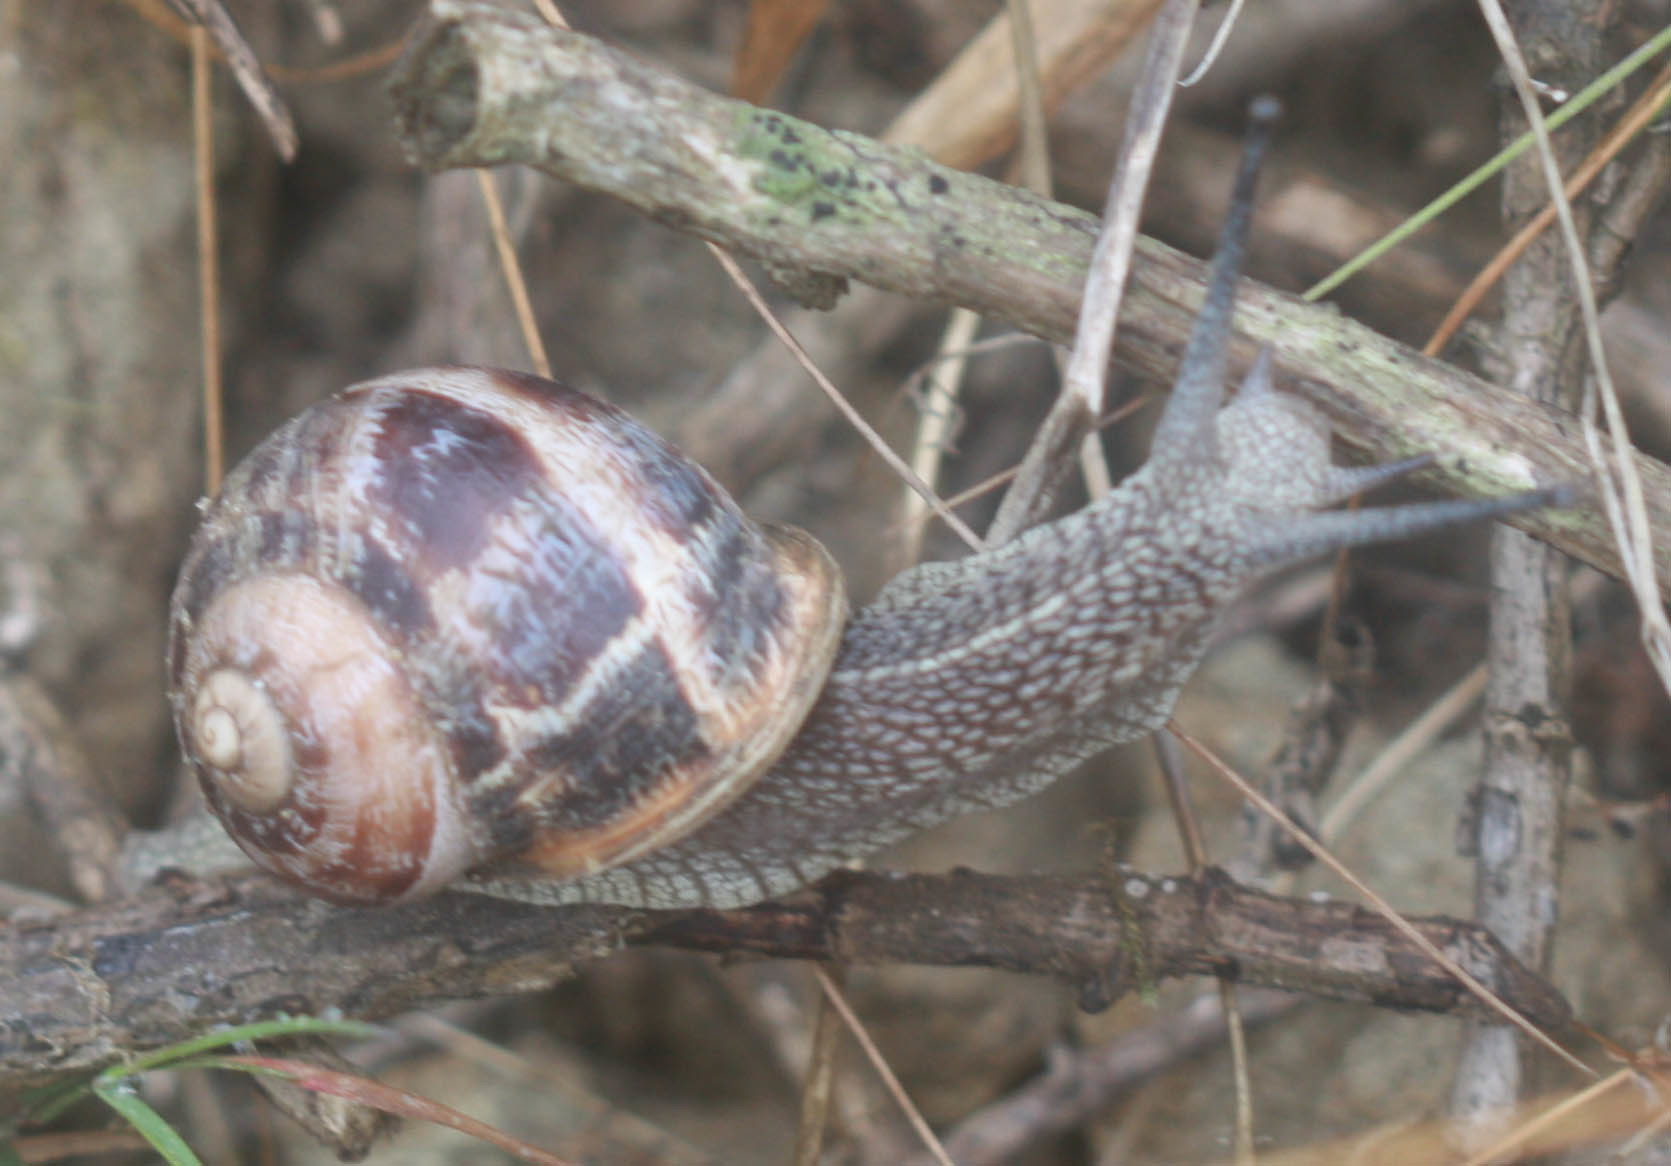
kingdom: Animalia
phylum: Mollusca
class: Gastropoda
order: Stylommatophora
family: Helicidae
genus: Cornu
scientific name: Cornu aspersum
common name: Brown garden snail
